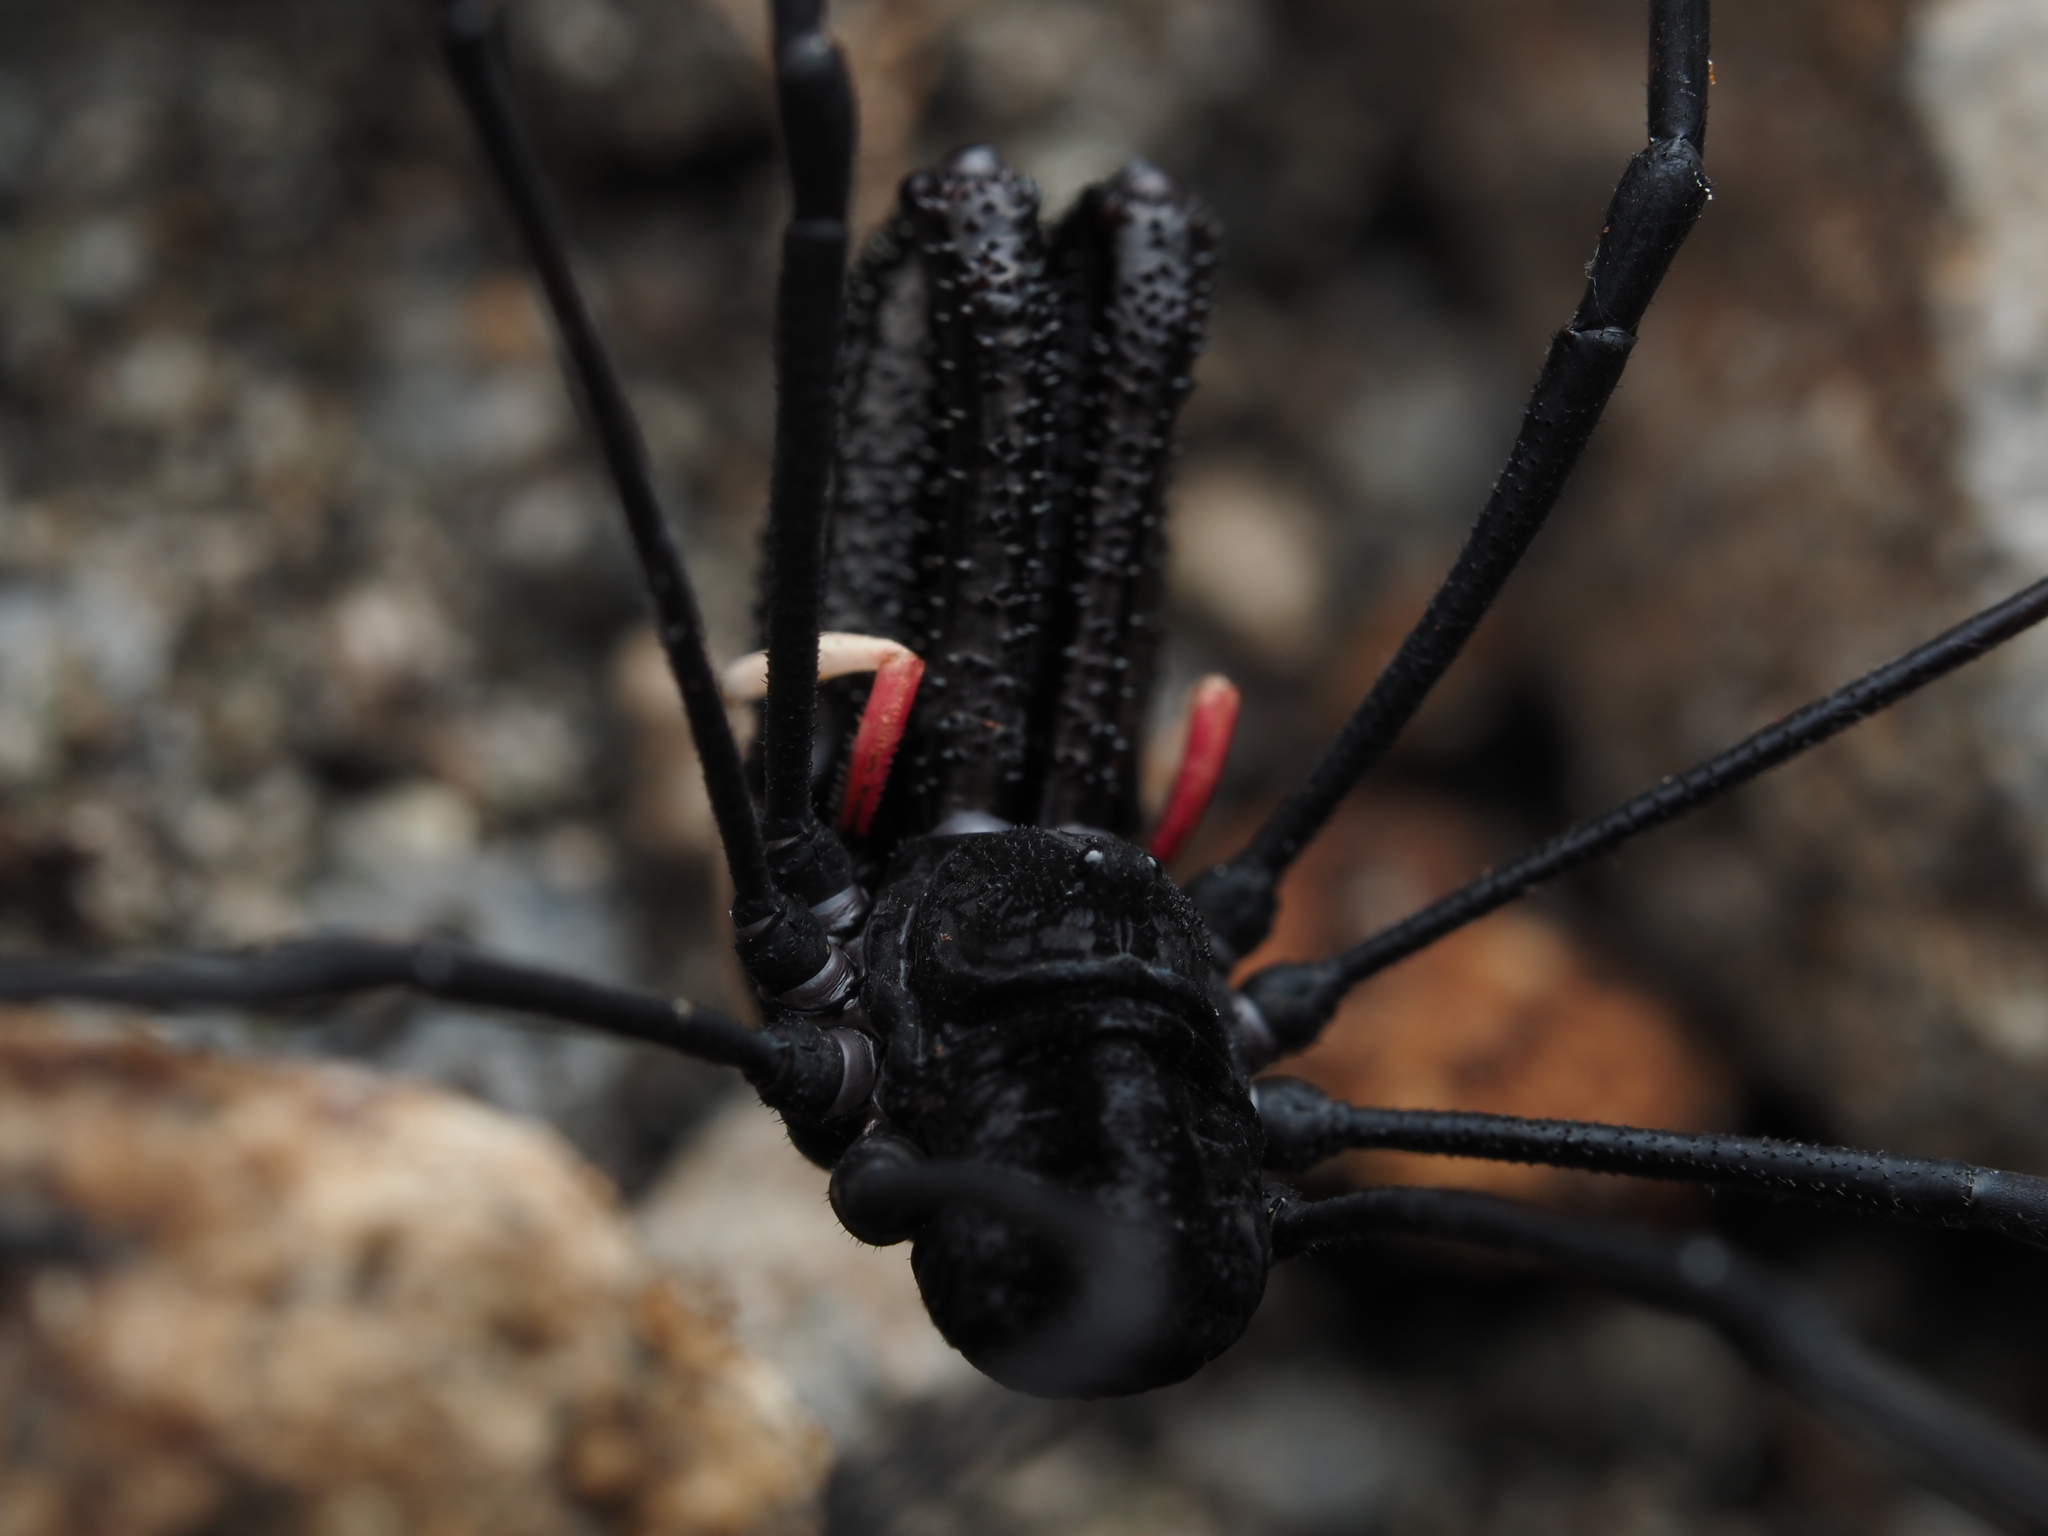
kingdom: Animalia
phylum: Arthropoda
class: Arachnida
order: Opiliones
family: Neopilionidae
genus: Forsteropsalis
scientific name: Forsteropsalis inconstans
